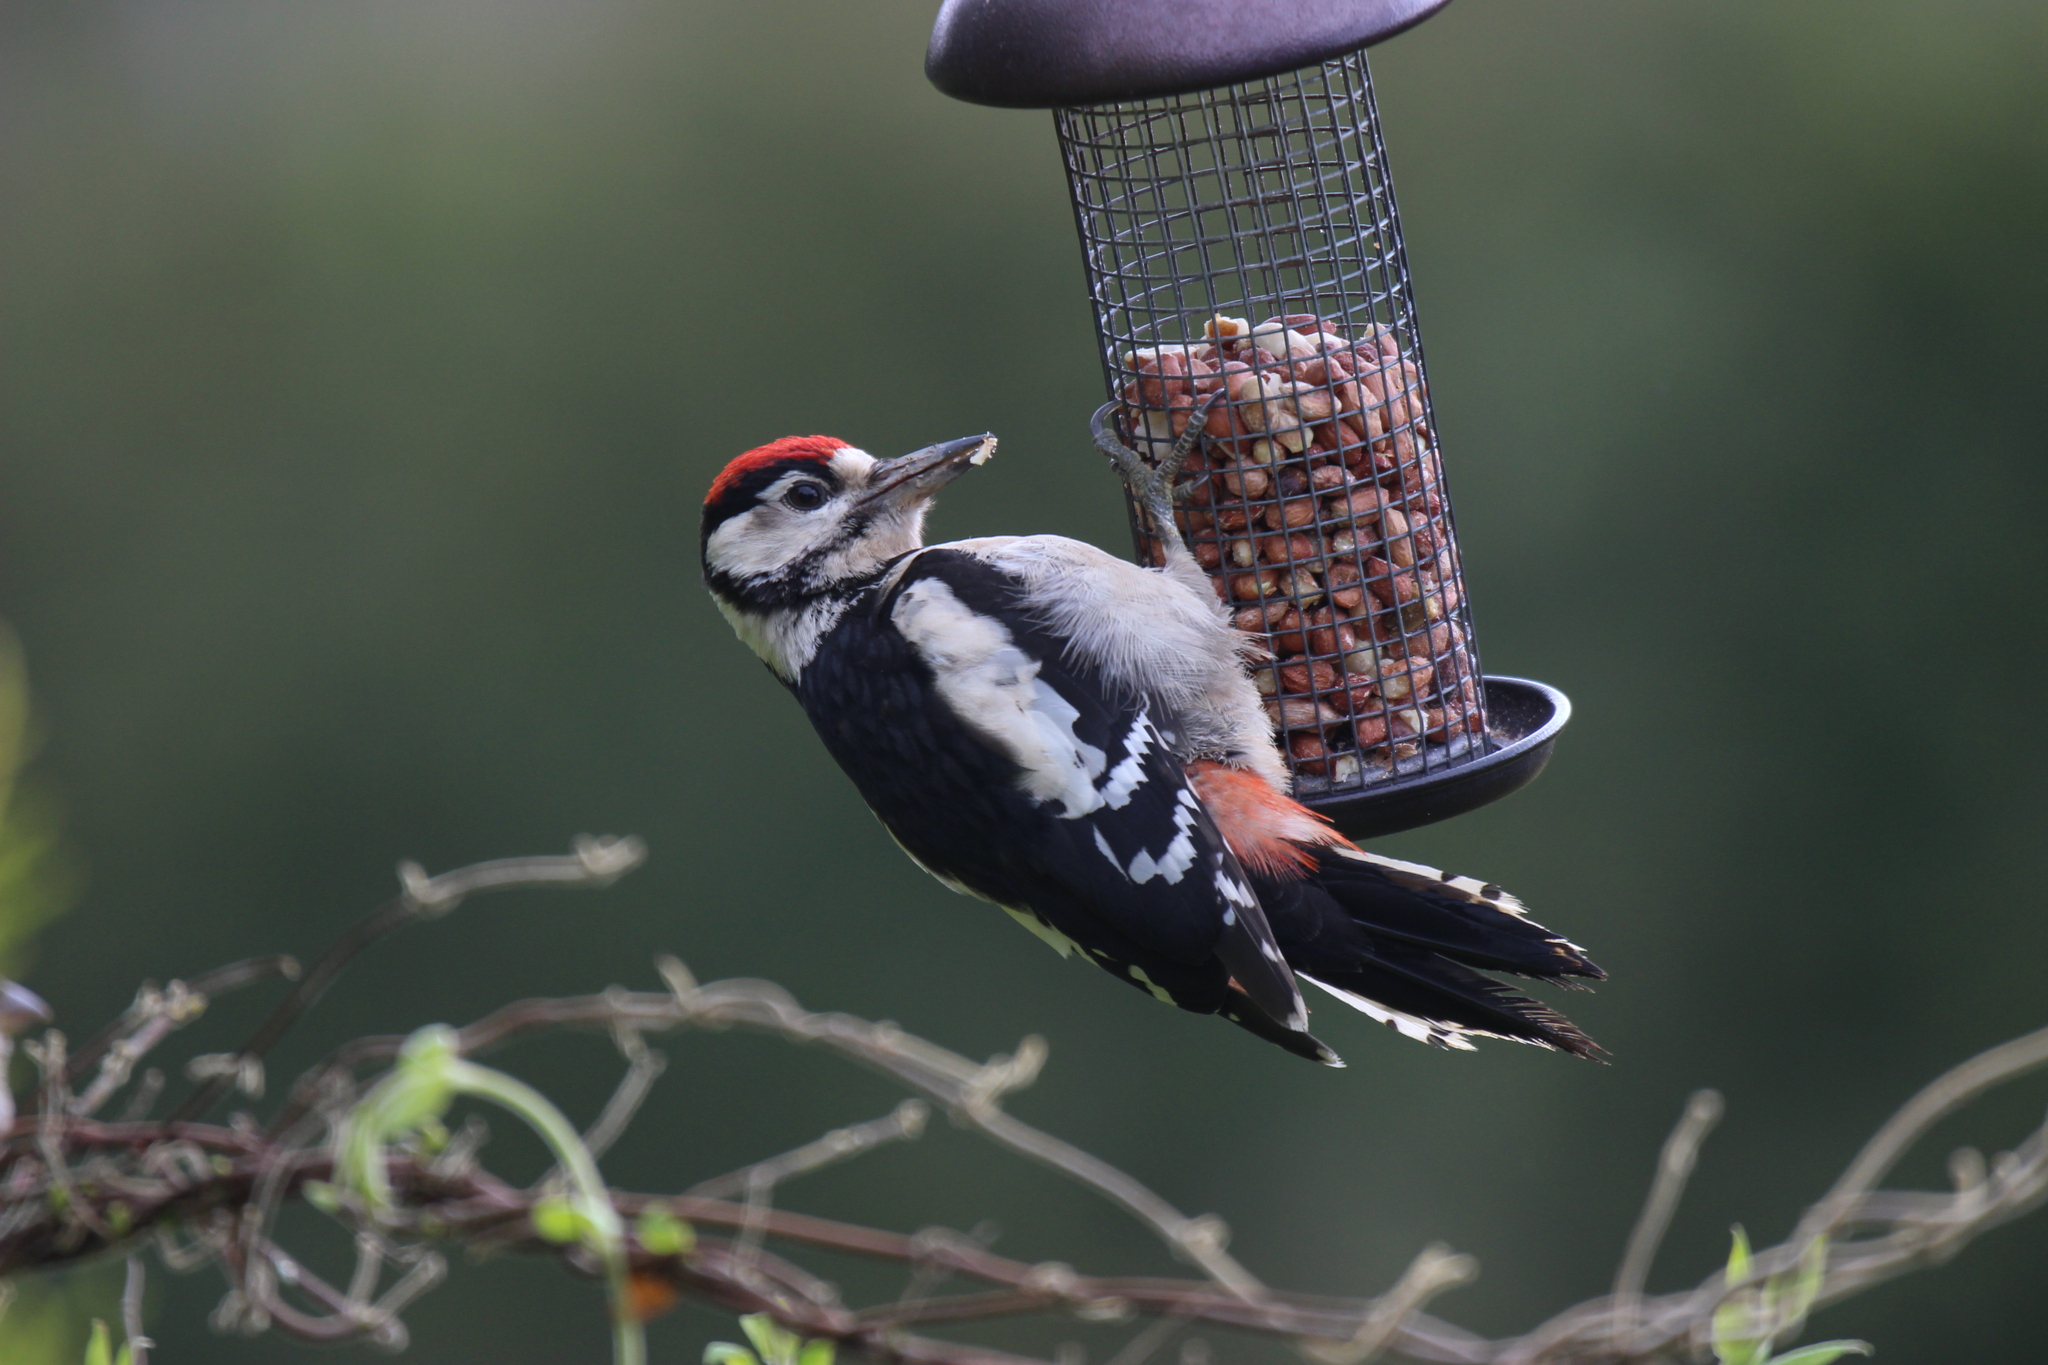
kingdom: Animalia
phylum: Chordata
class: Aves
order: Piciformes
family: Picidae
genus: Dendrocopos
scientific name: Dendrocopos major
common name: Great spotted woodpecker
